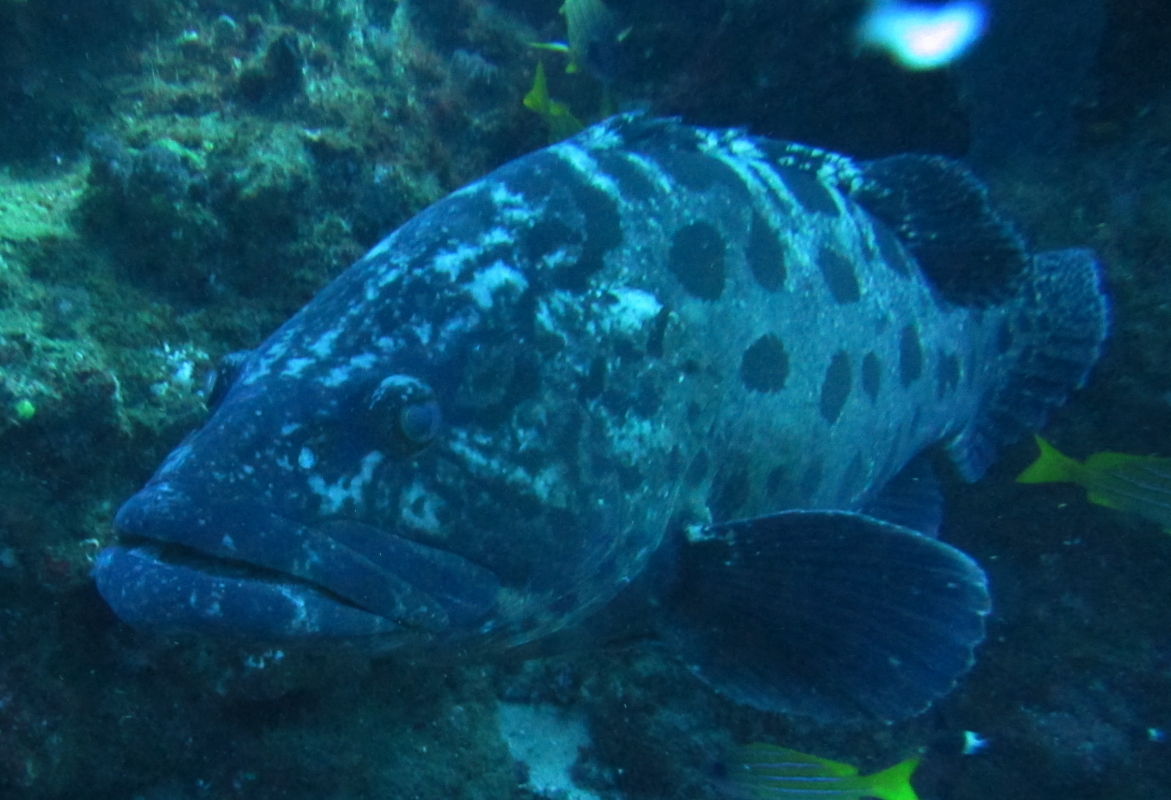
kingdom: Animalia
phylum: Chordata
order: Perciformes
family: Serranidae
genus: Epinephelus
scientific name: Epinephelus tukula
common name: Potato cod
